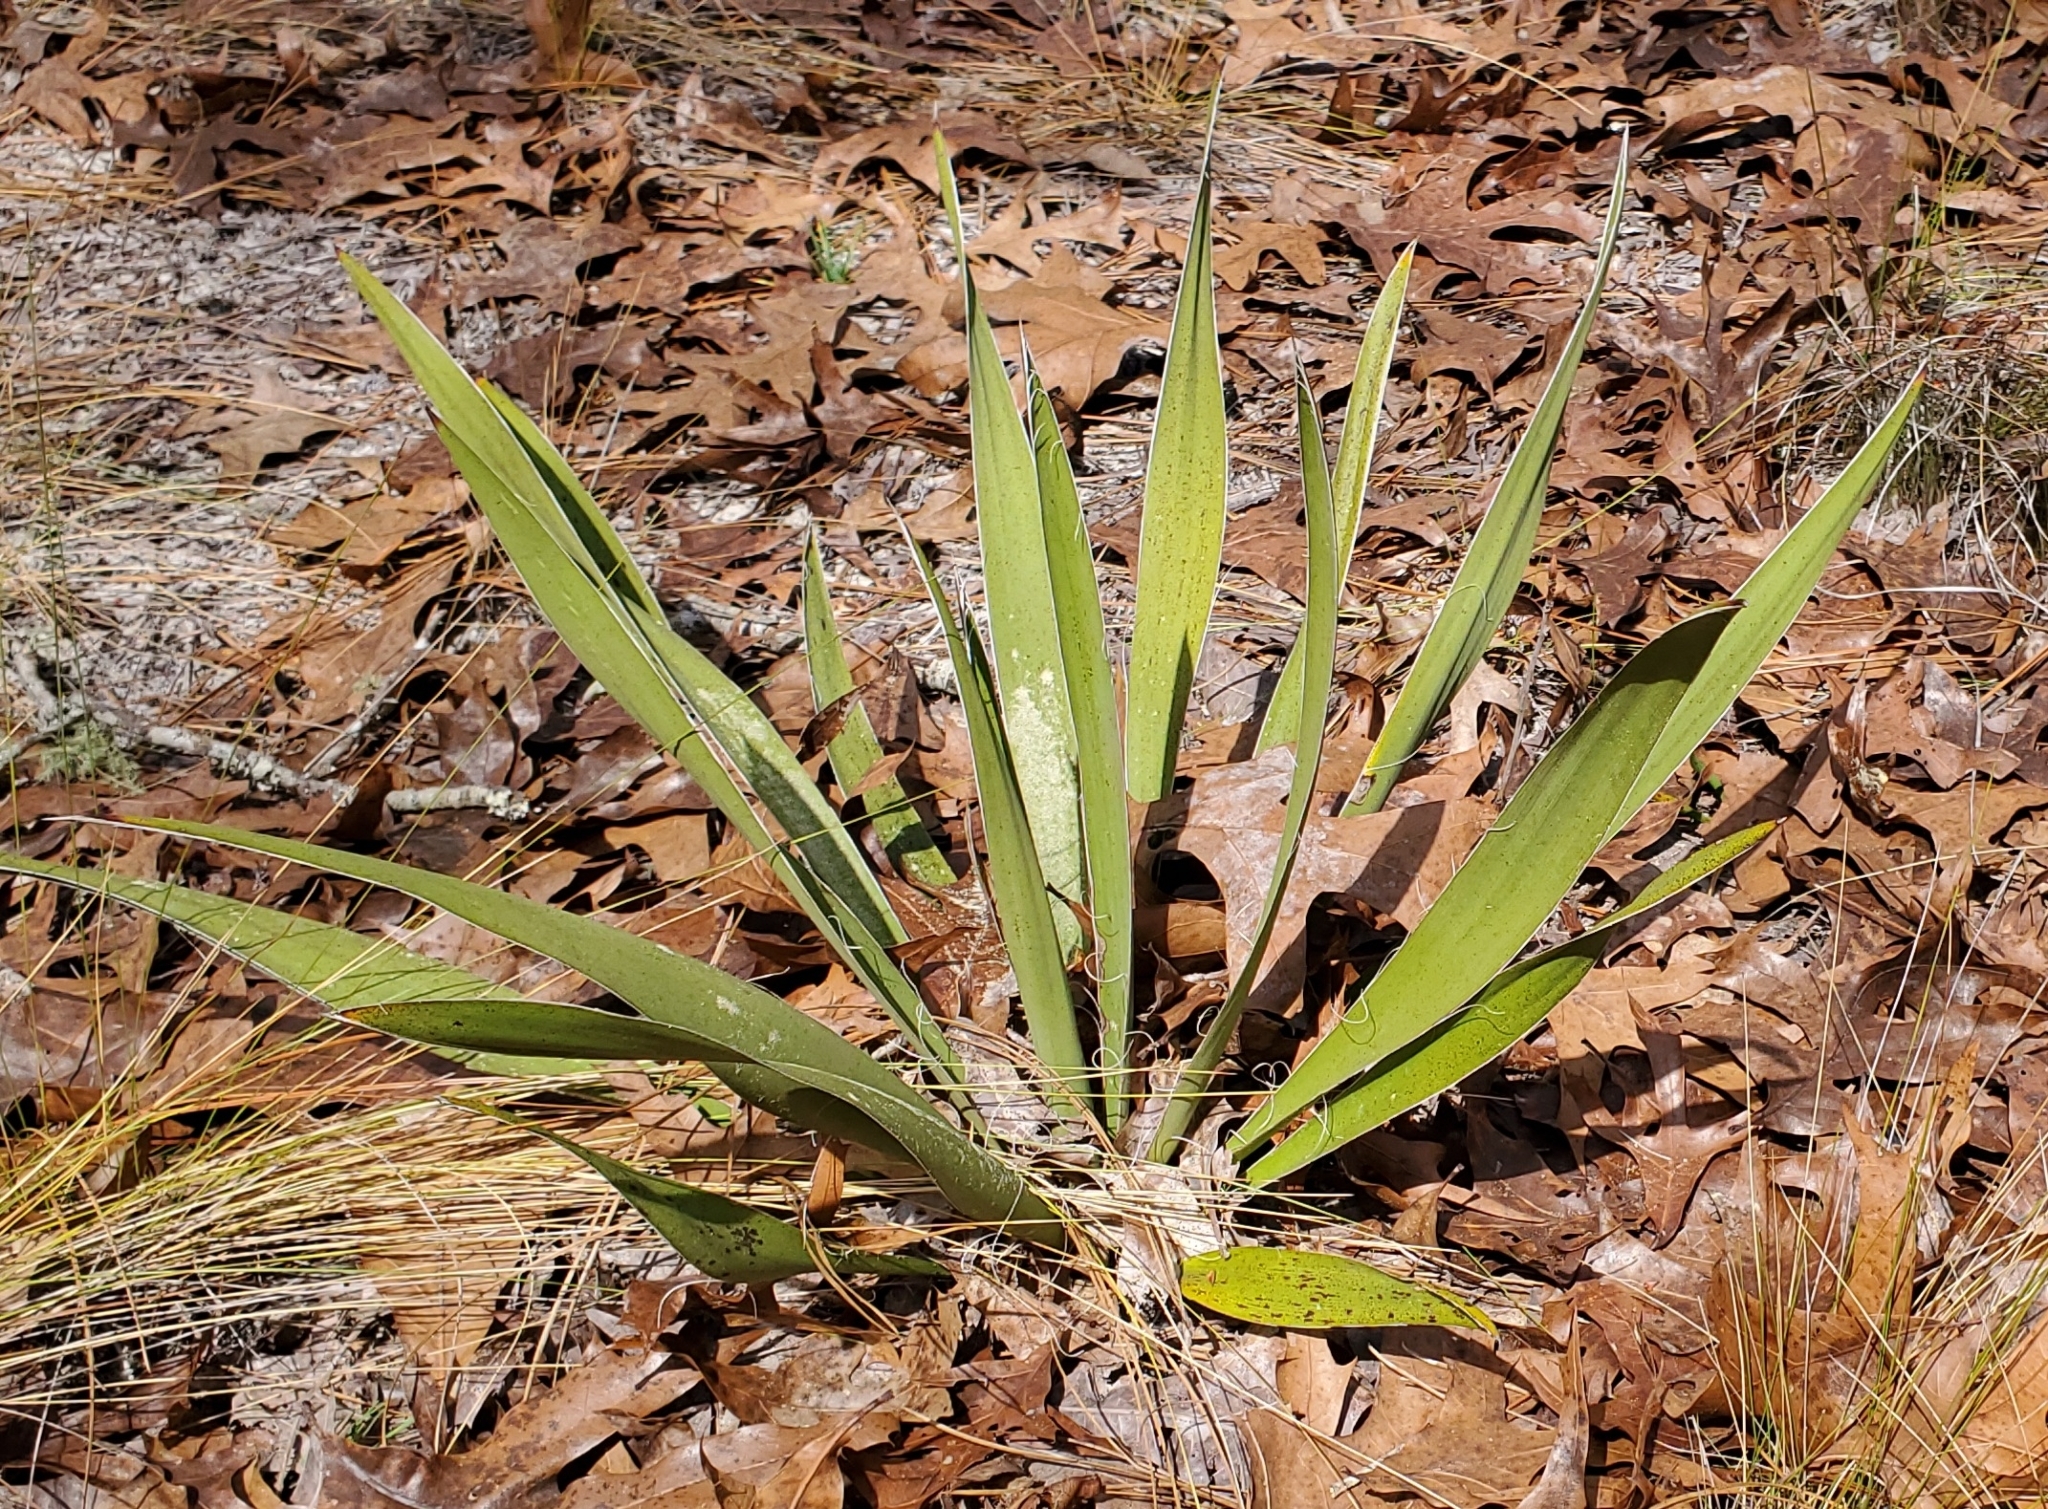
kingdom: Plantae
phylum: Tracheophyta
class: Liliopsida
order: Asparagales
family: Asparagaceae
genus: Yucca
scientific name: Yucca filamentosa
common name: Adam's-needle
